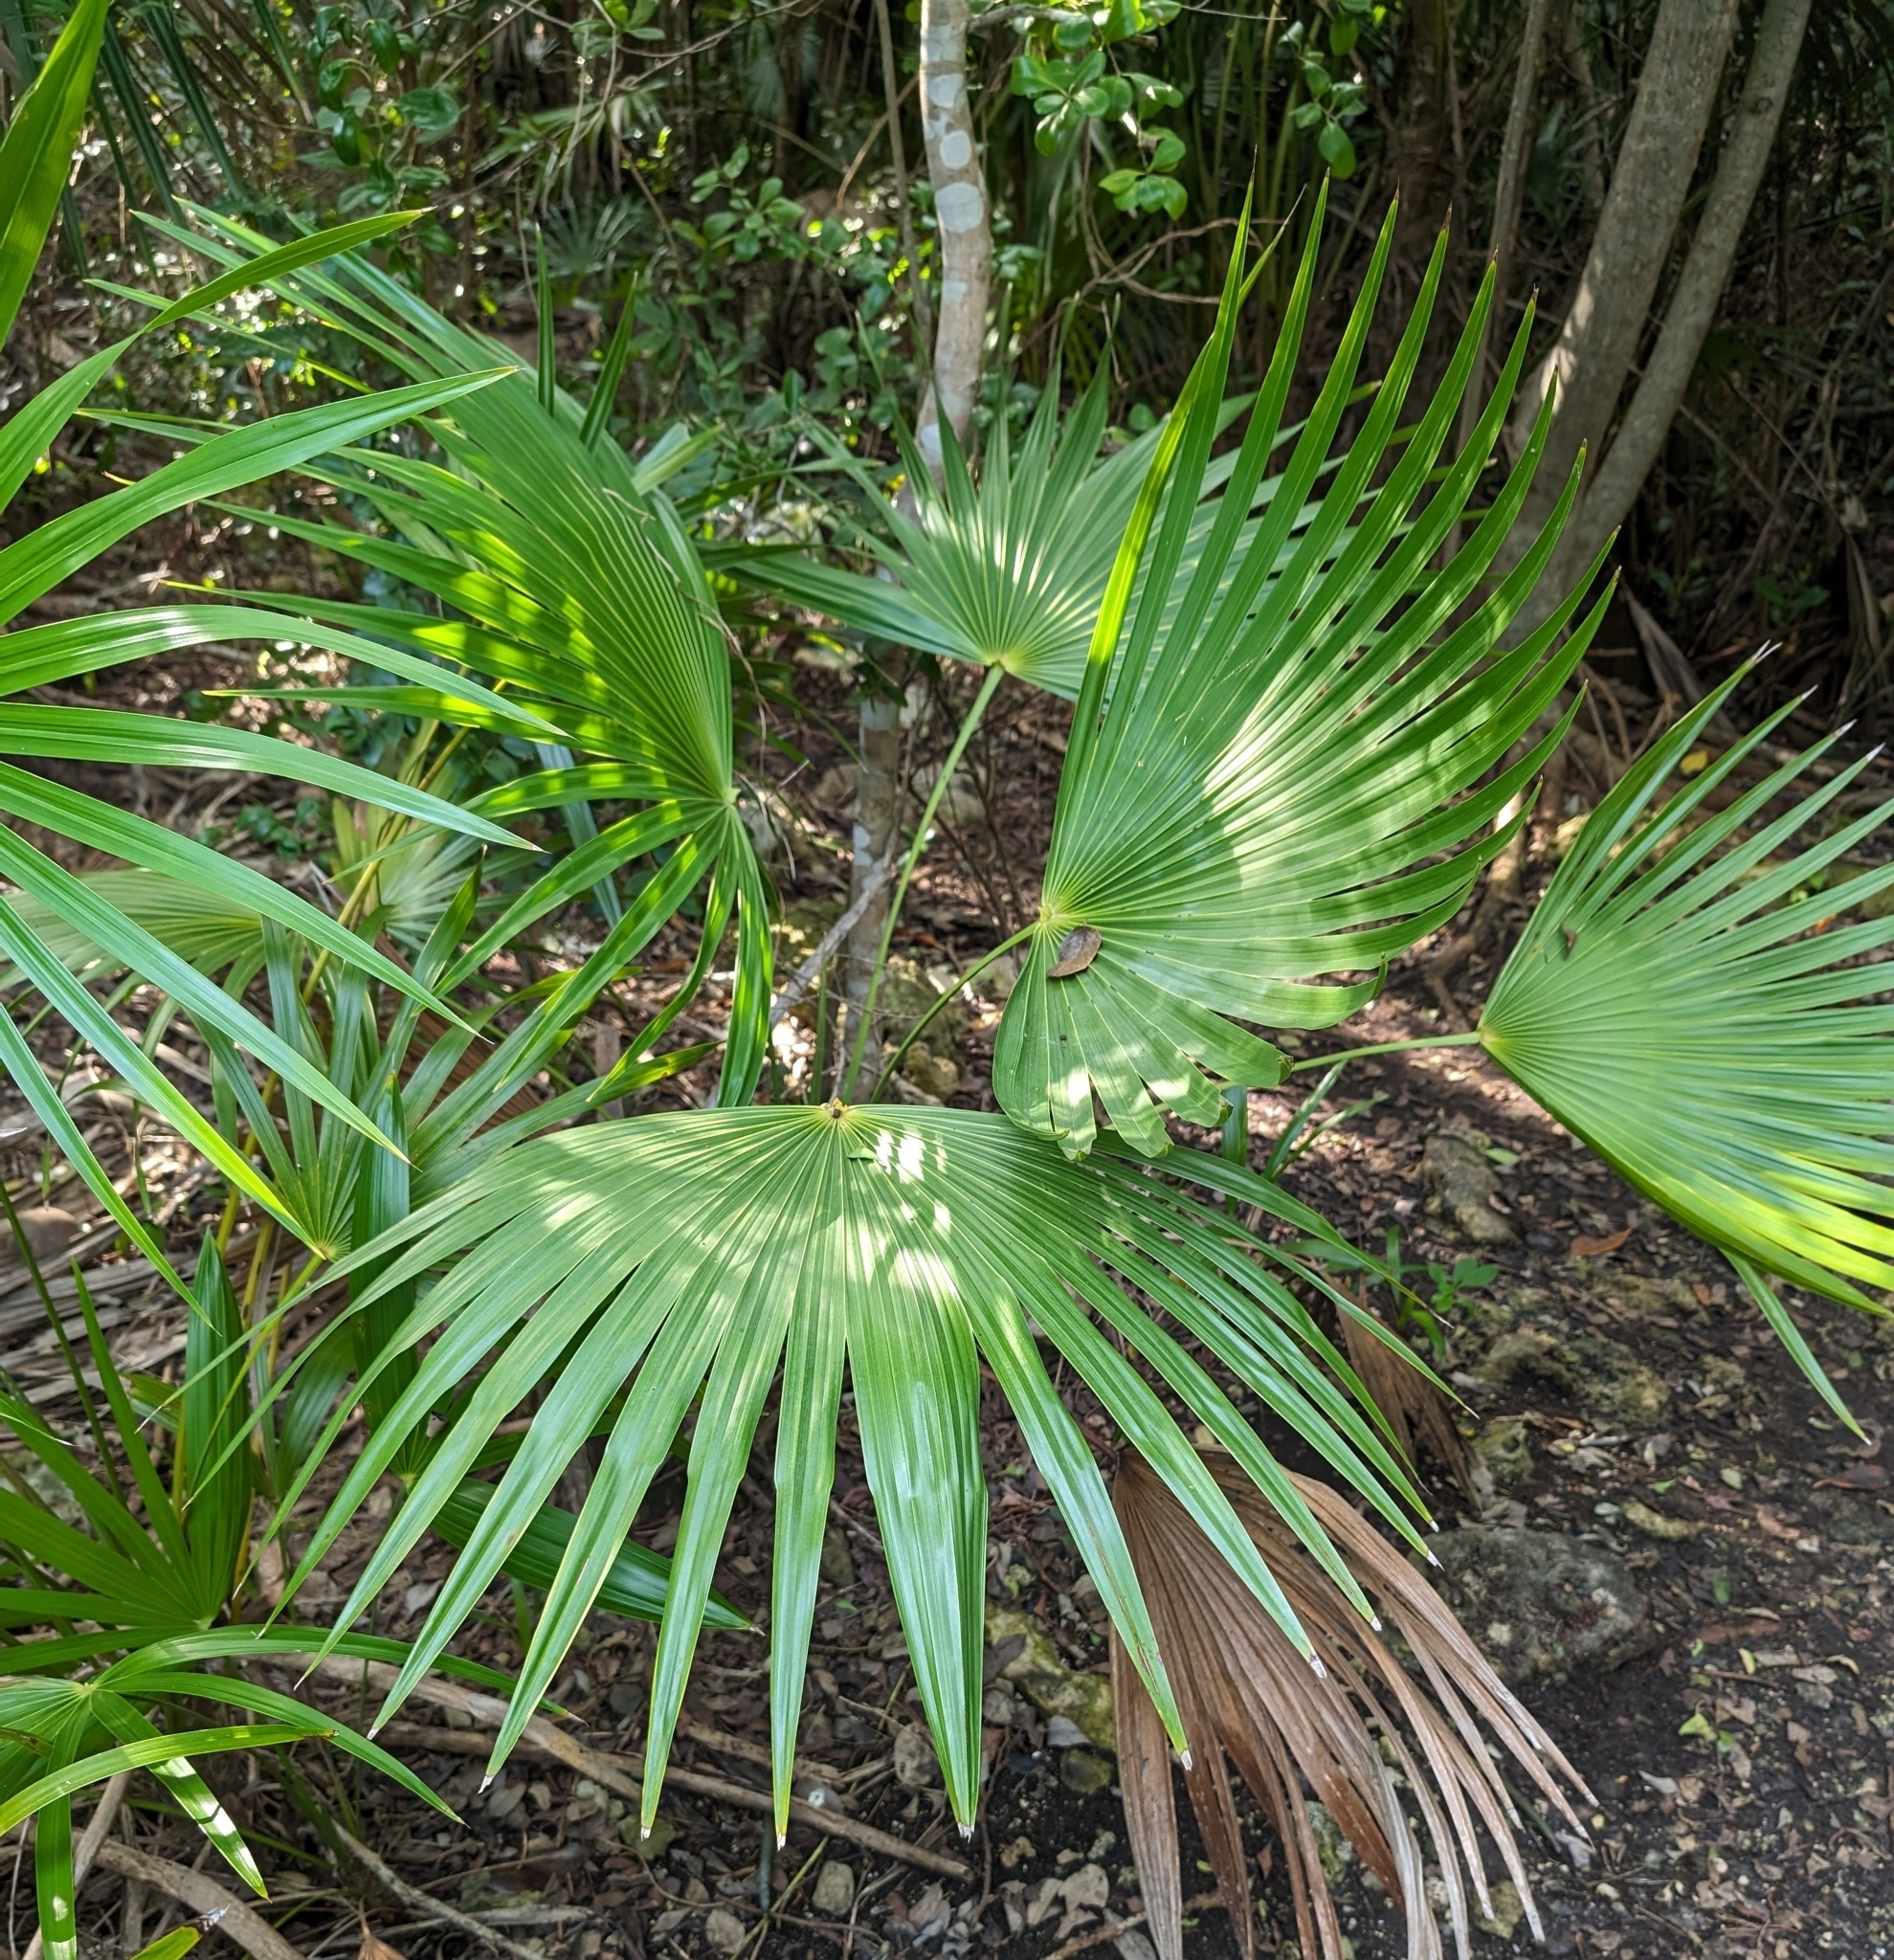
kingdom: Plantae
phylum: Tracheophyta
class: Liliopsida
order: Arecales
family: Arecaceae
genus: Thrinax
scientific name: Thrinax radiata
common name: Florida thatch
